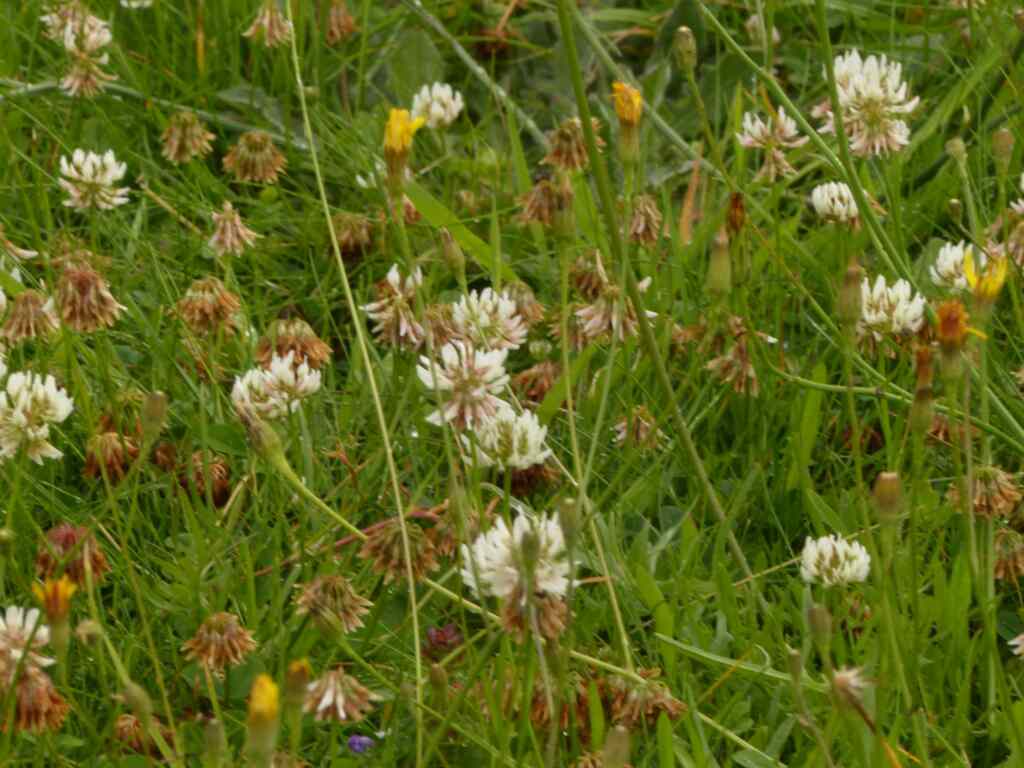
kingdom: Plantae
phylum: Tracheophyta
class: Magnoliopsida
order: Fabales
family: Fabaceae
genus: Trifolium
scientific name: Trifolium repens
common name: White clover
